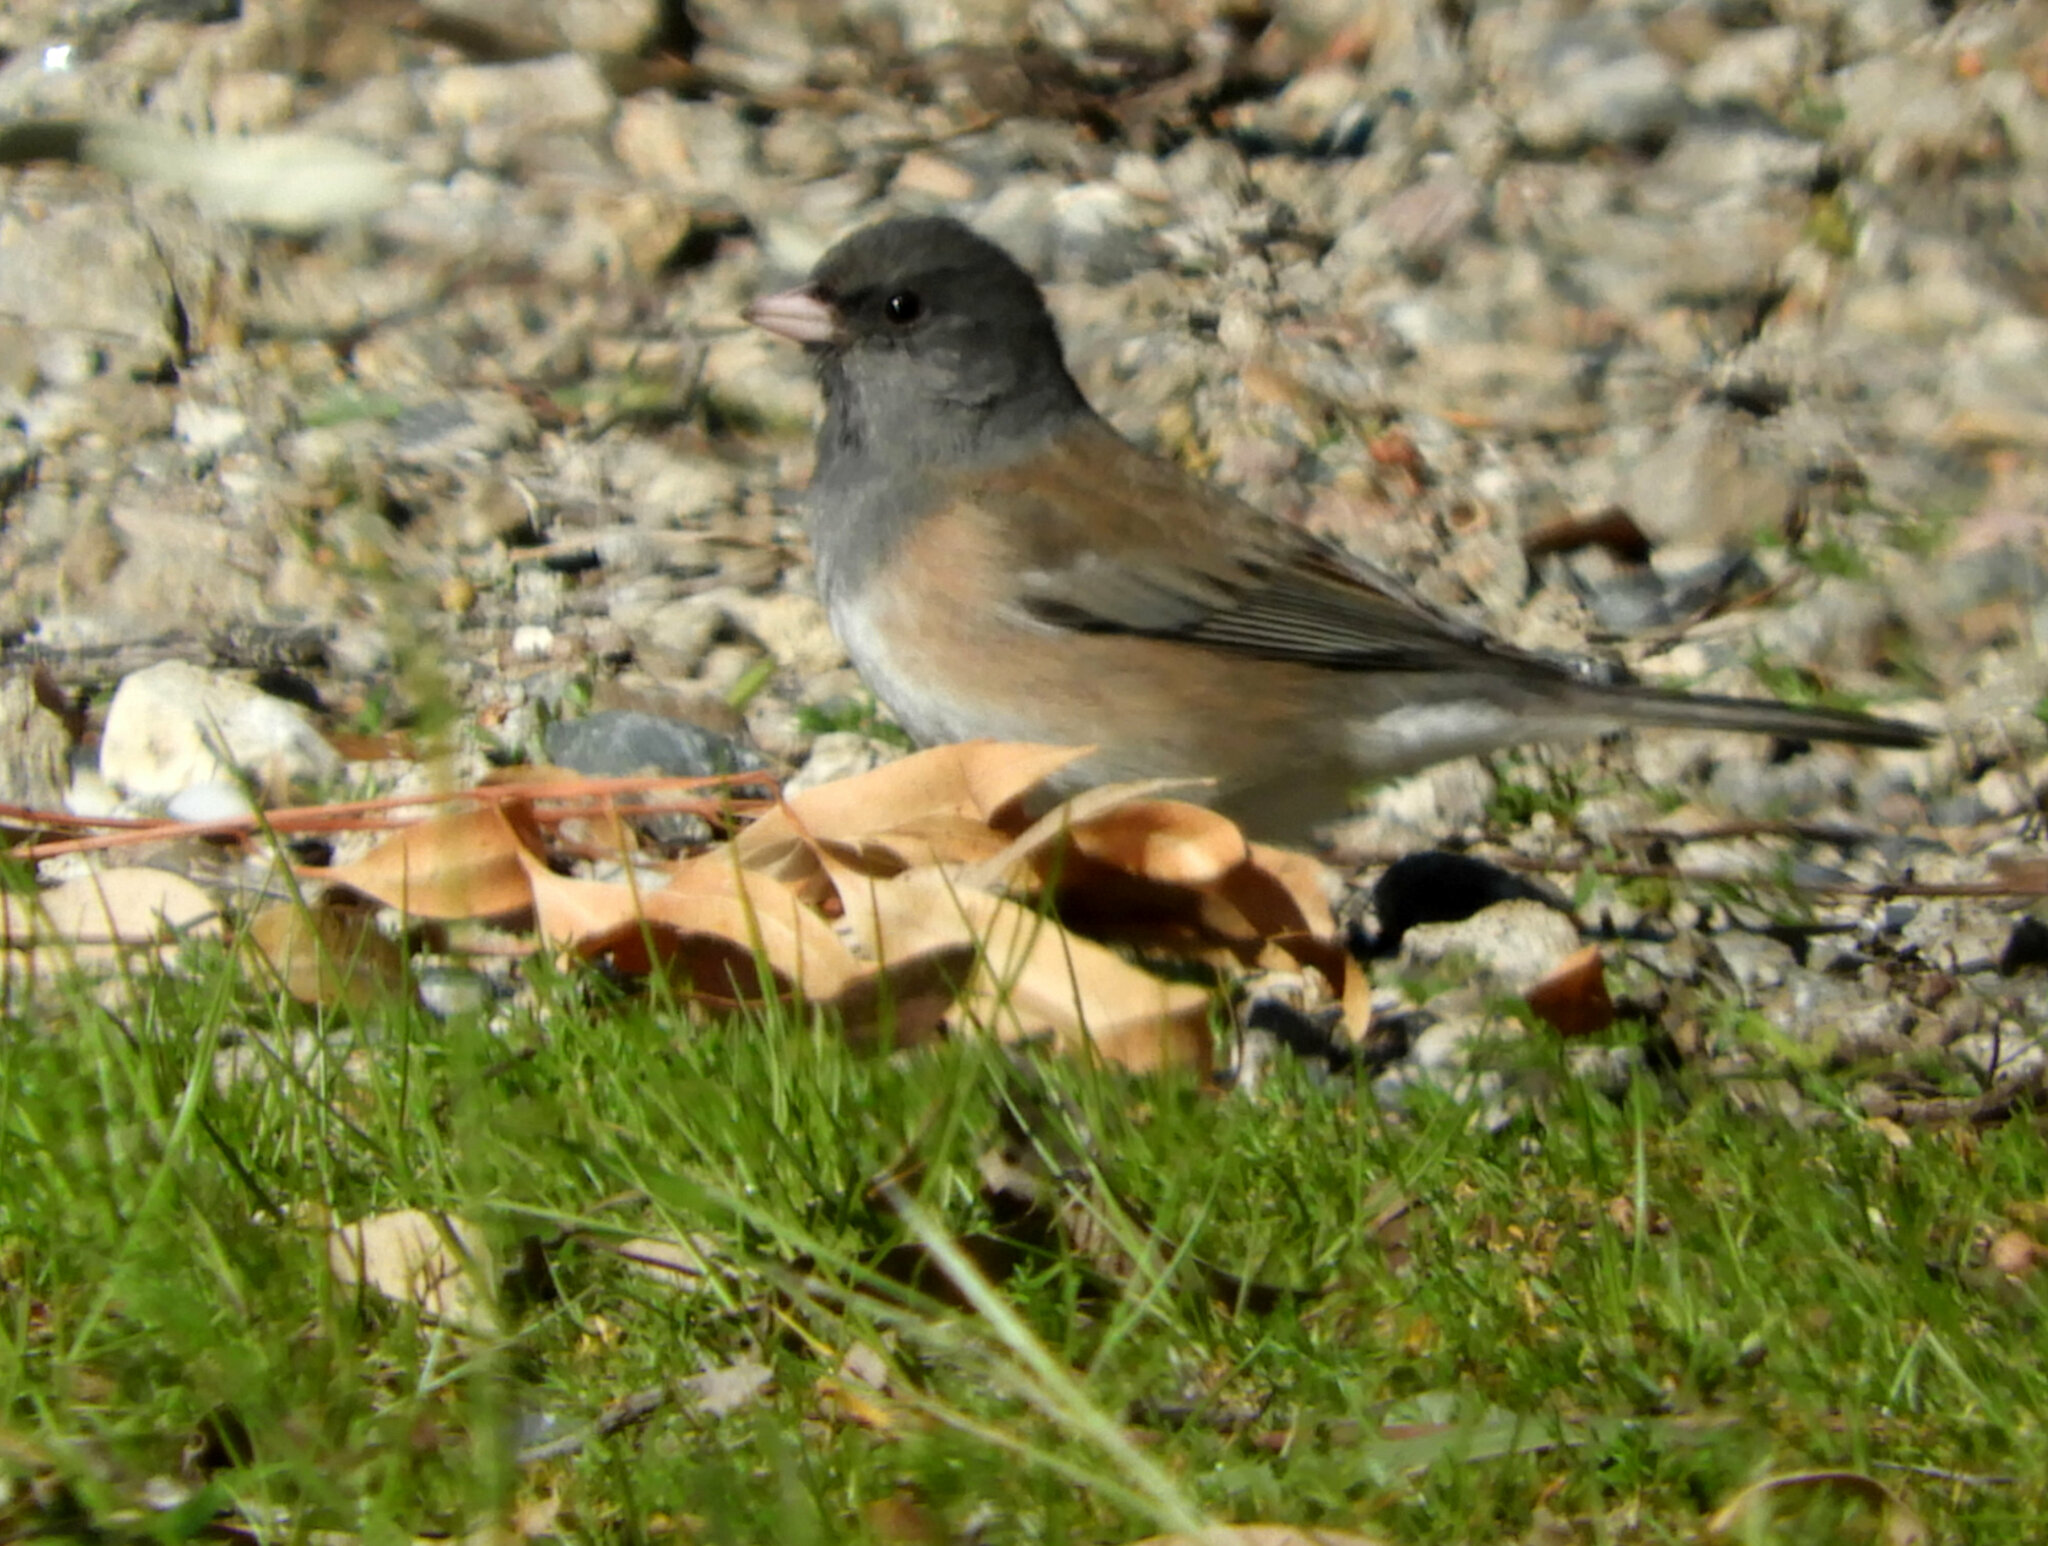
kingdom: Animalia
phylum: Chordata
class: Aves
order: Passeriformes
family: Passerellidae
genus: Junco
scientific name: Junco hyemalis
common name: Dark-eyed junco
